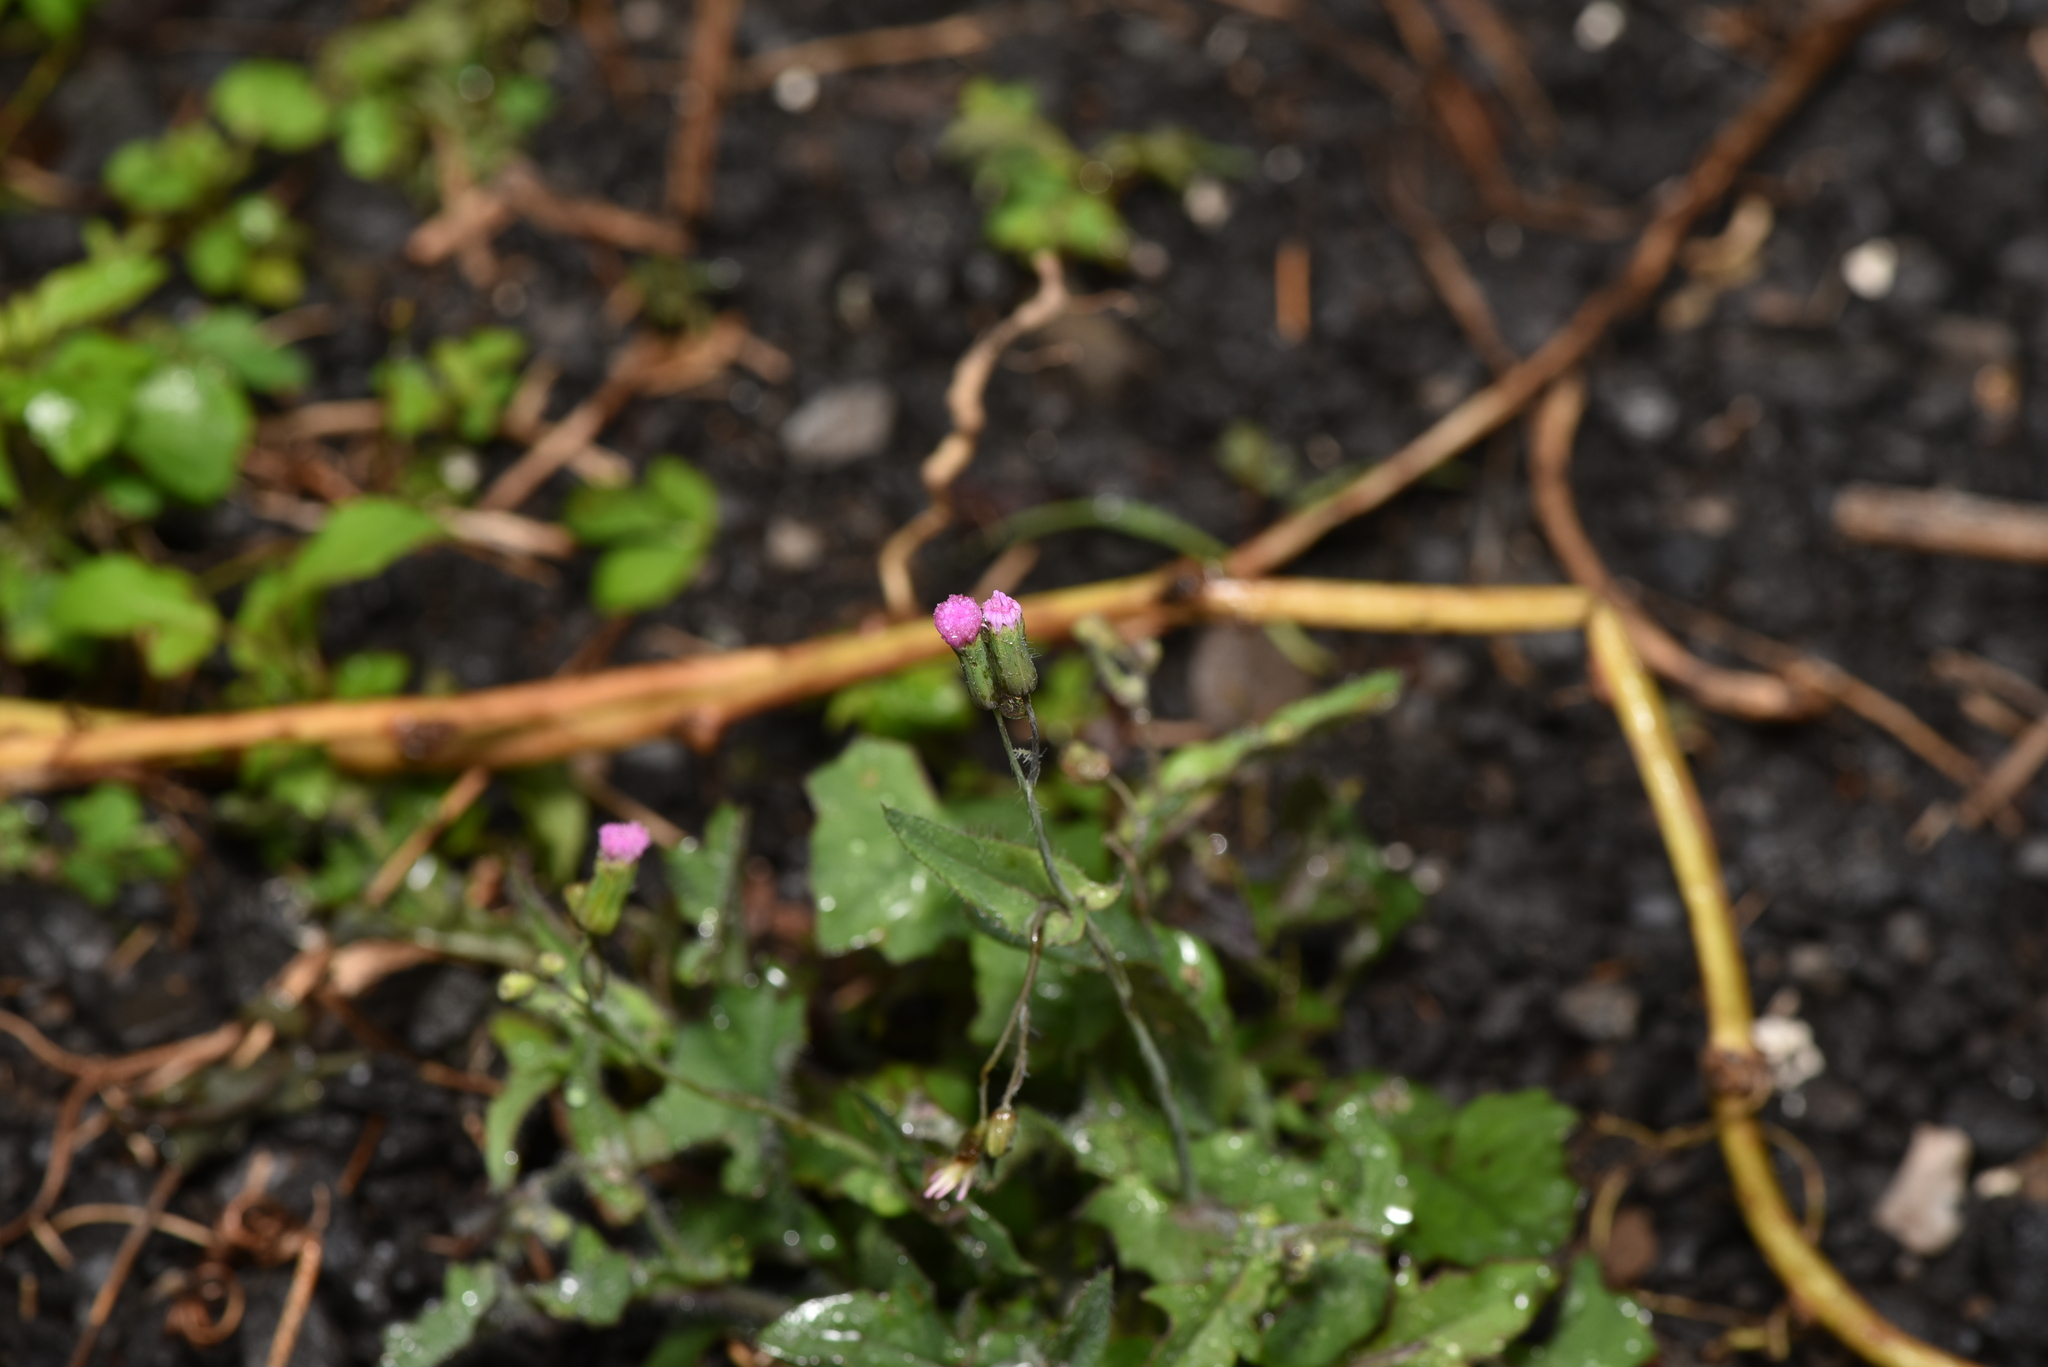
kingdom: Plantae
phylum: Tracheophyta
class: Magnoliopsida
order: Asterales
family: Asteraceae
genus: Emilia
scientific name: Emilia javanica
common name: Tassel-flower
